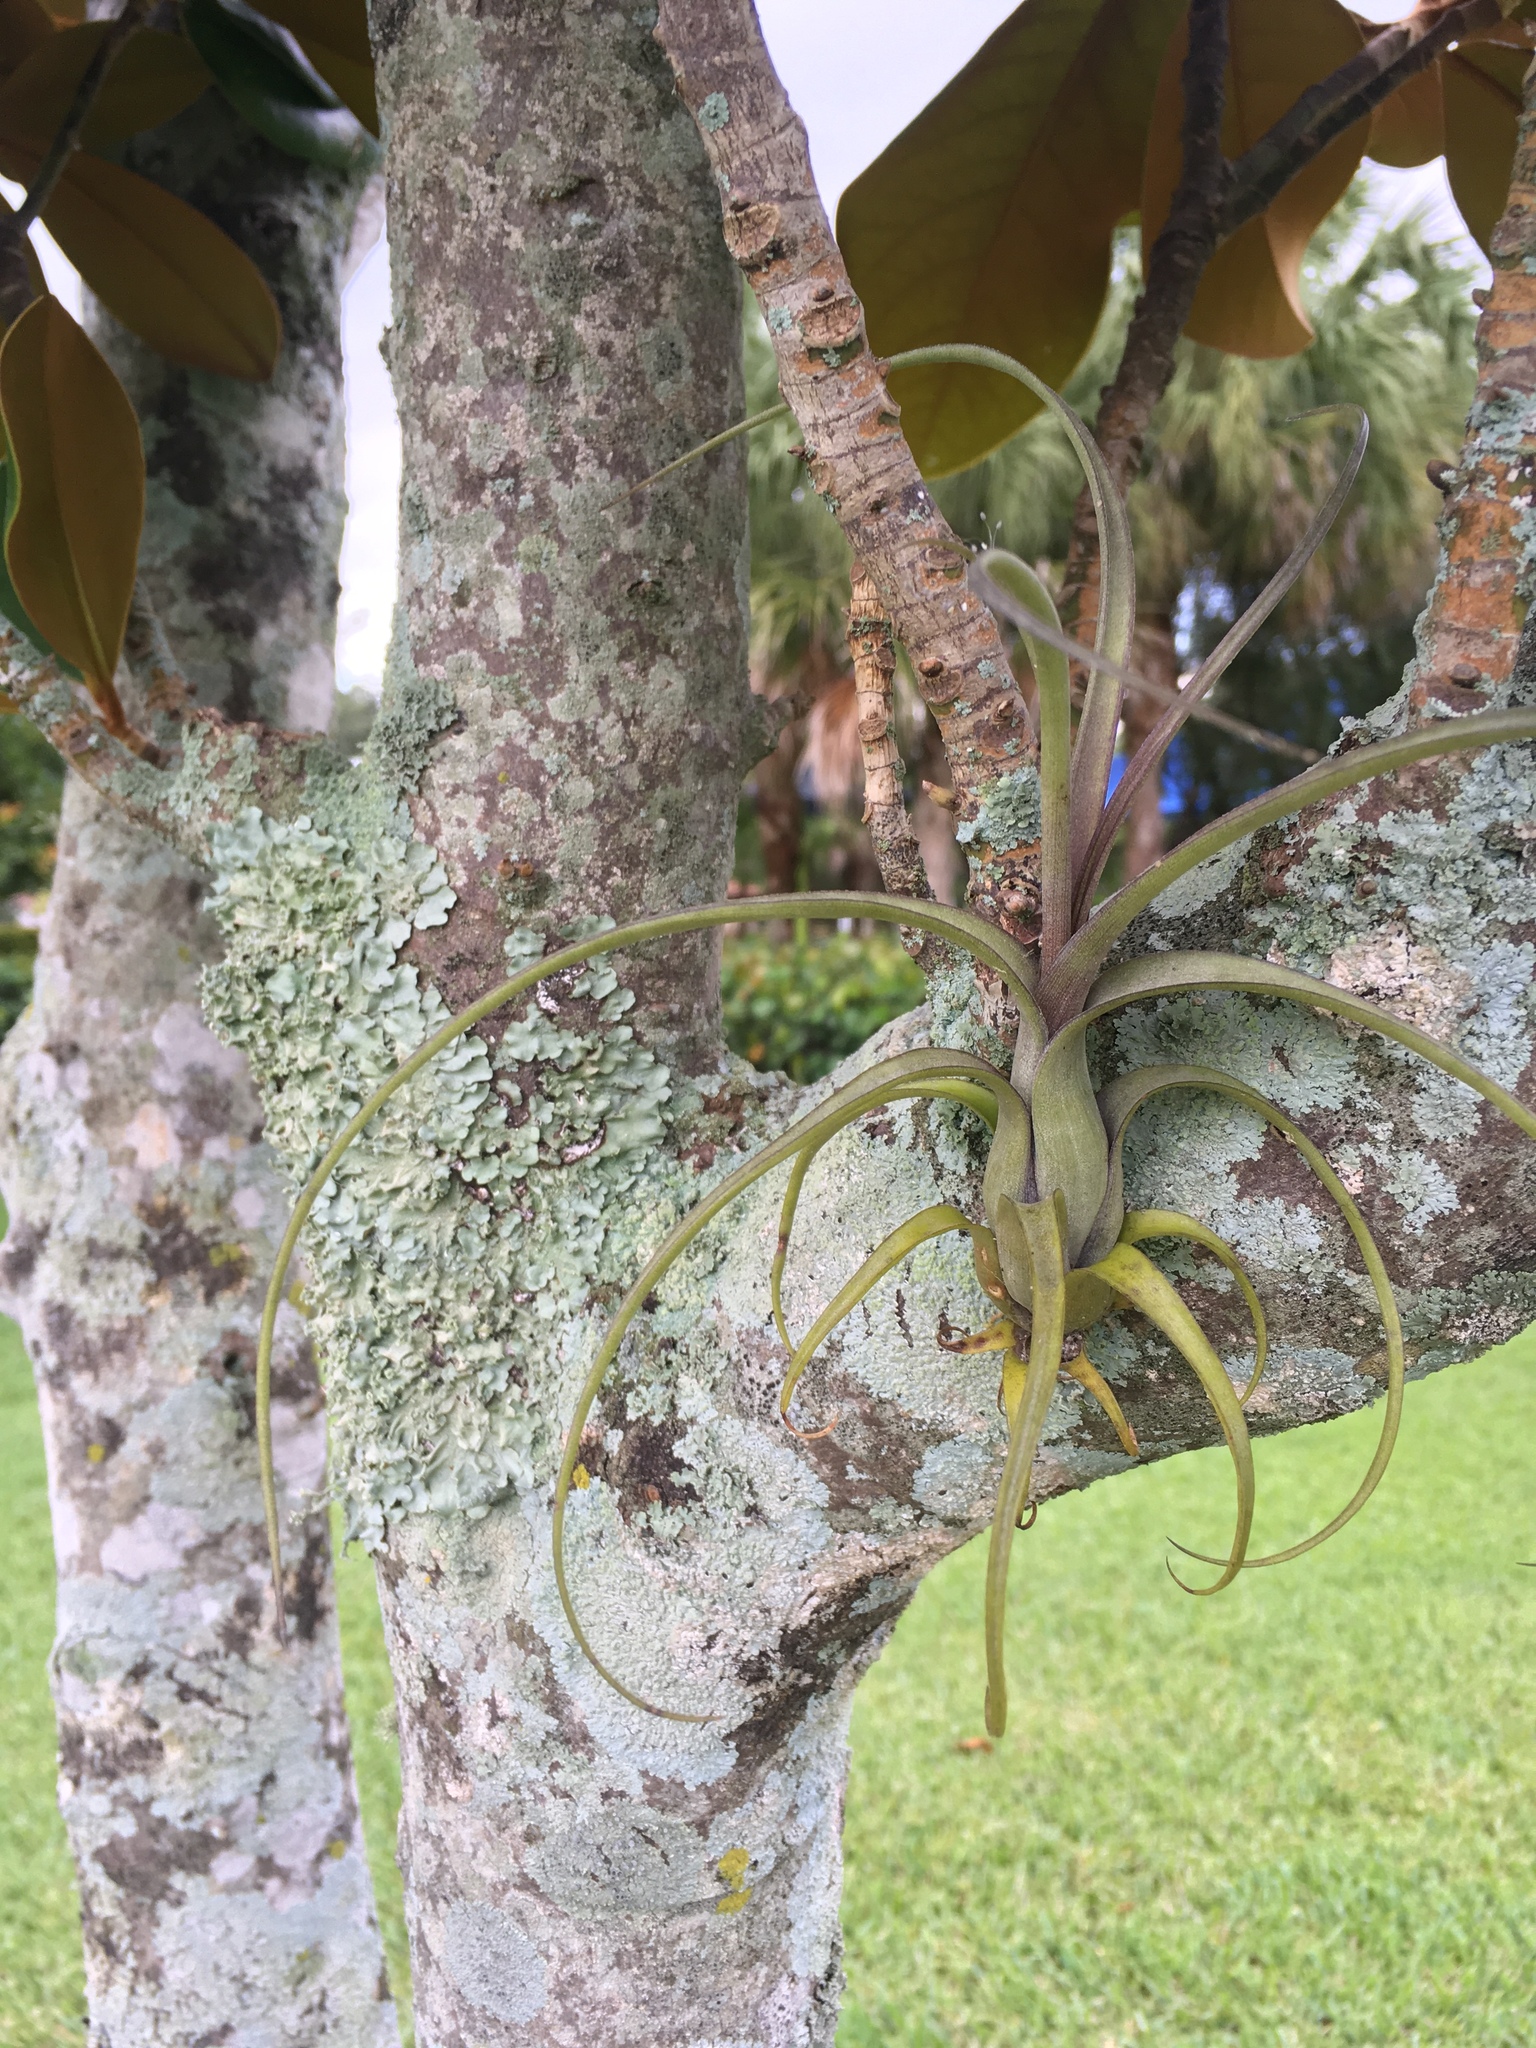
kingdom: Plantae
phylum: Tracheophyta
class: Liliopsida
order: Poales
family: Bromeliaceae
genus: Tillandsia
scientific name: Tillandsia balbisiana
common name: Northern needleleaf
